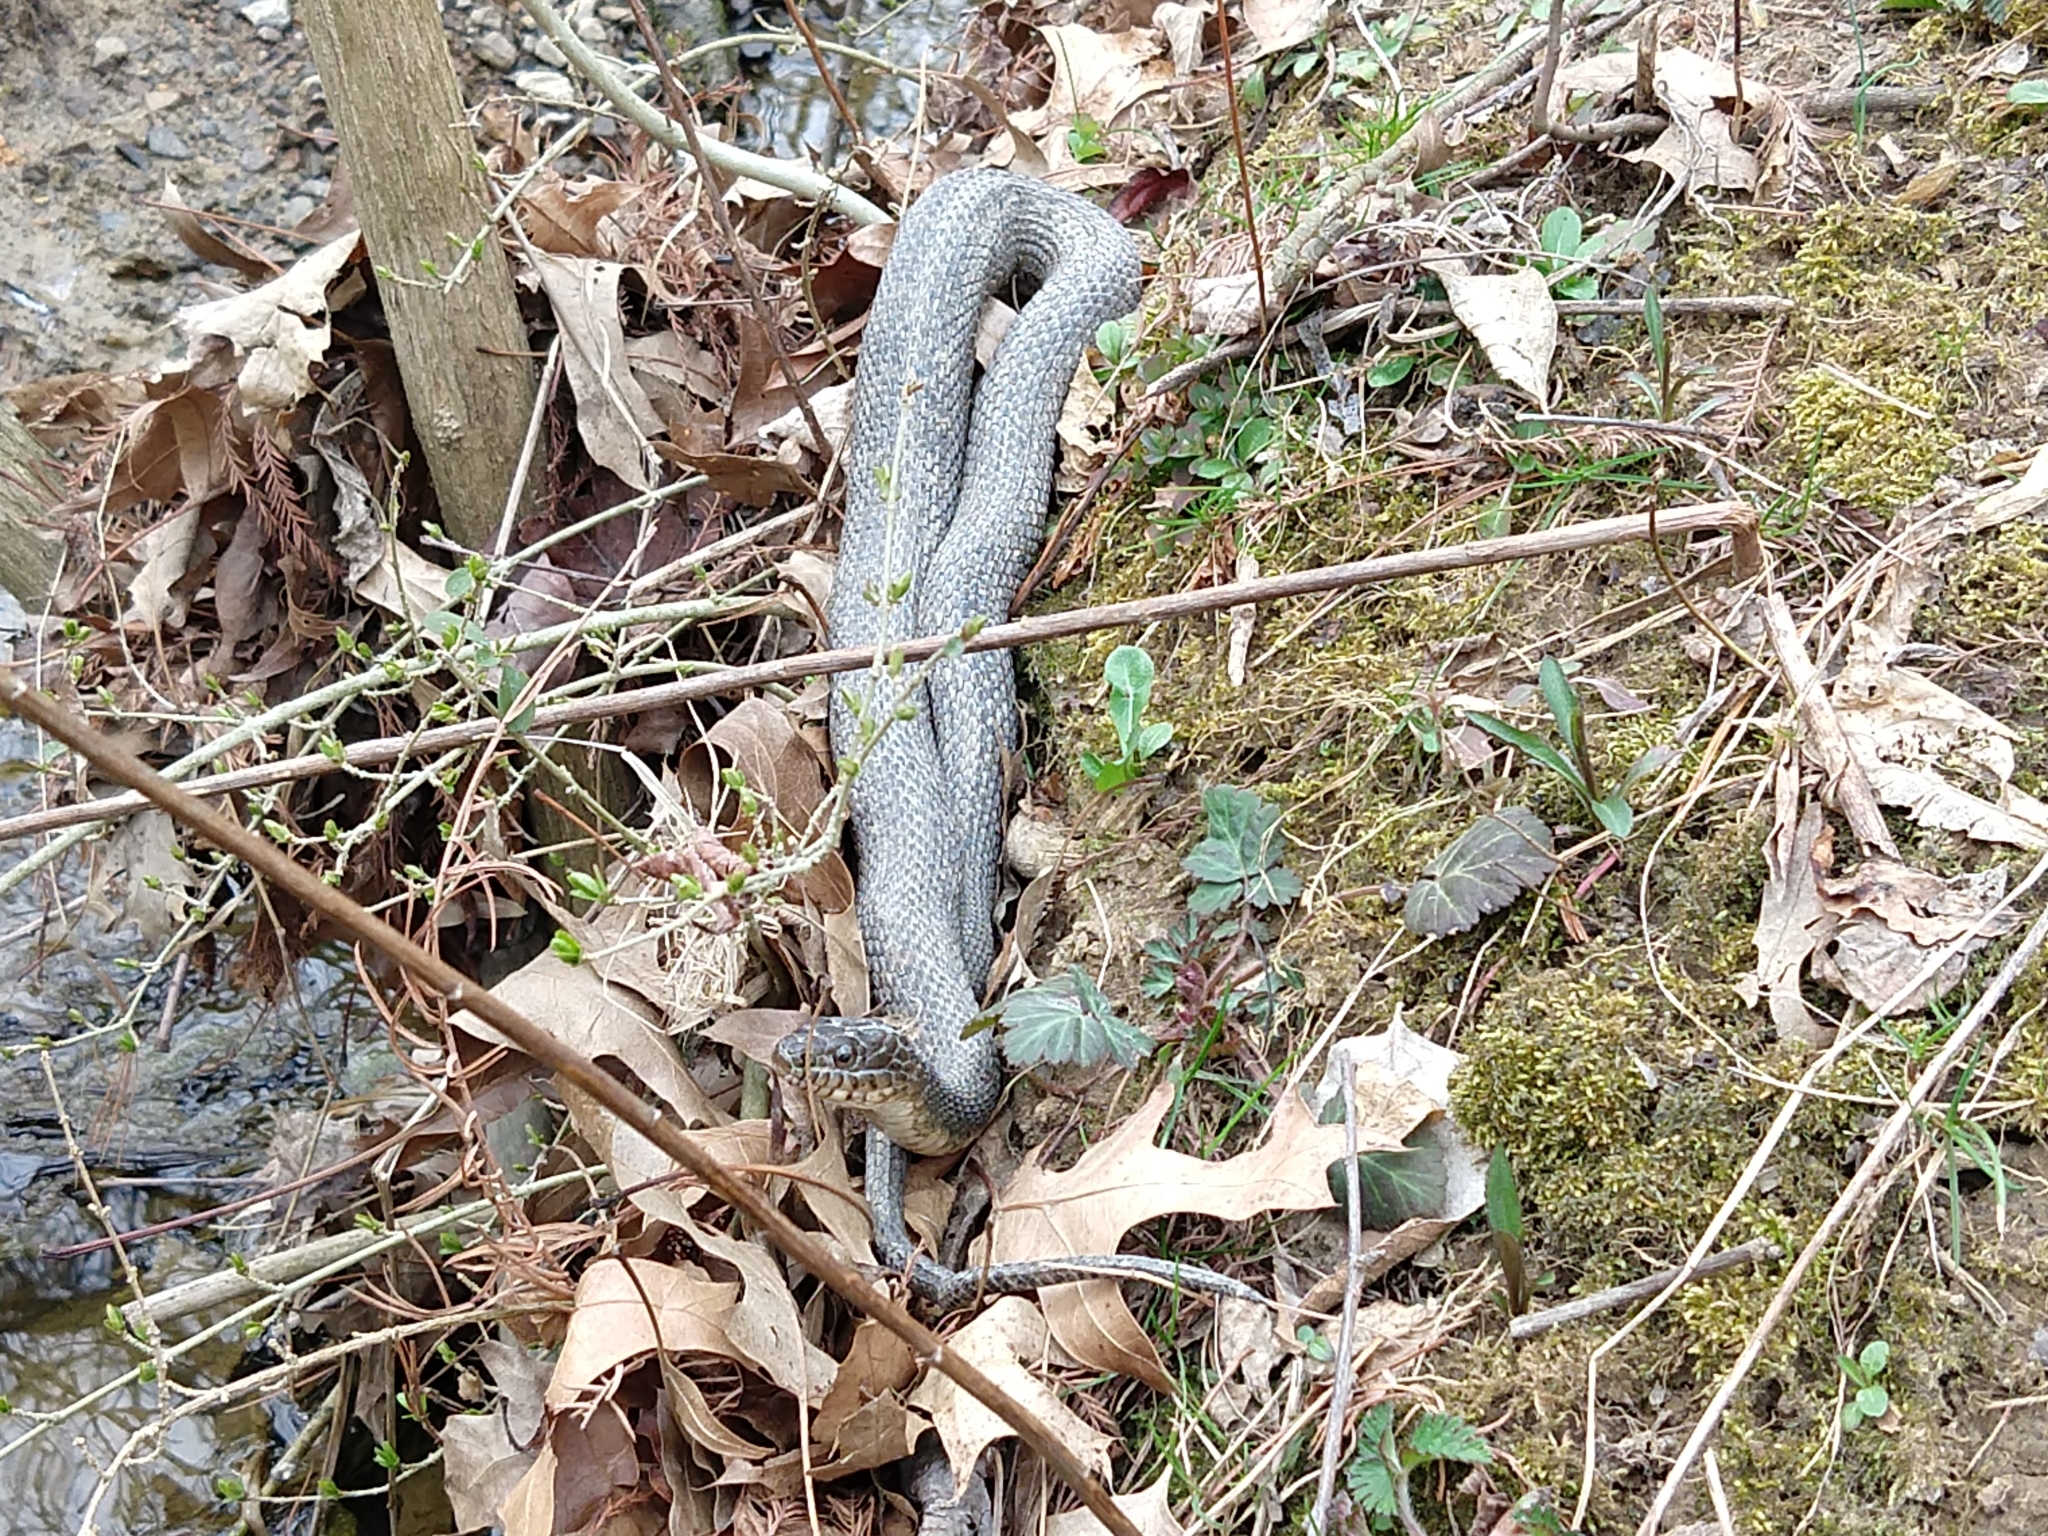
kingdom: Animalia
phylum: Chordata
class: Squamata
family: Colubridae
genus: Nerodia
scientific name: Nerodia sipedon
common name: Northern water snake
